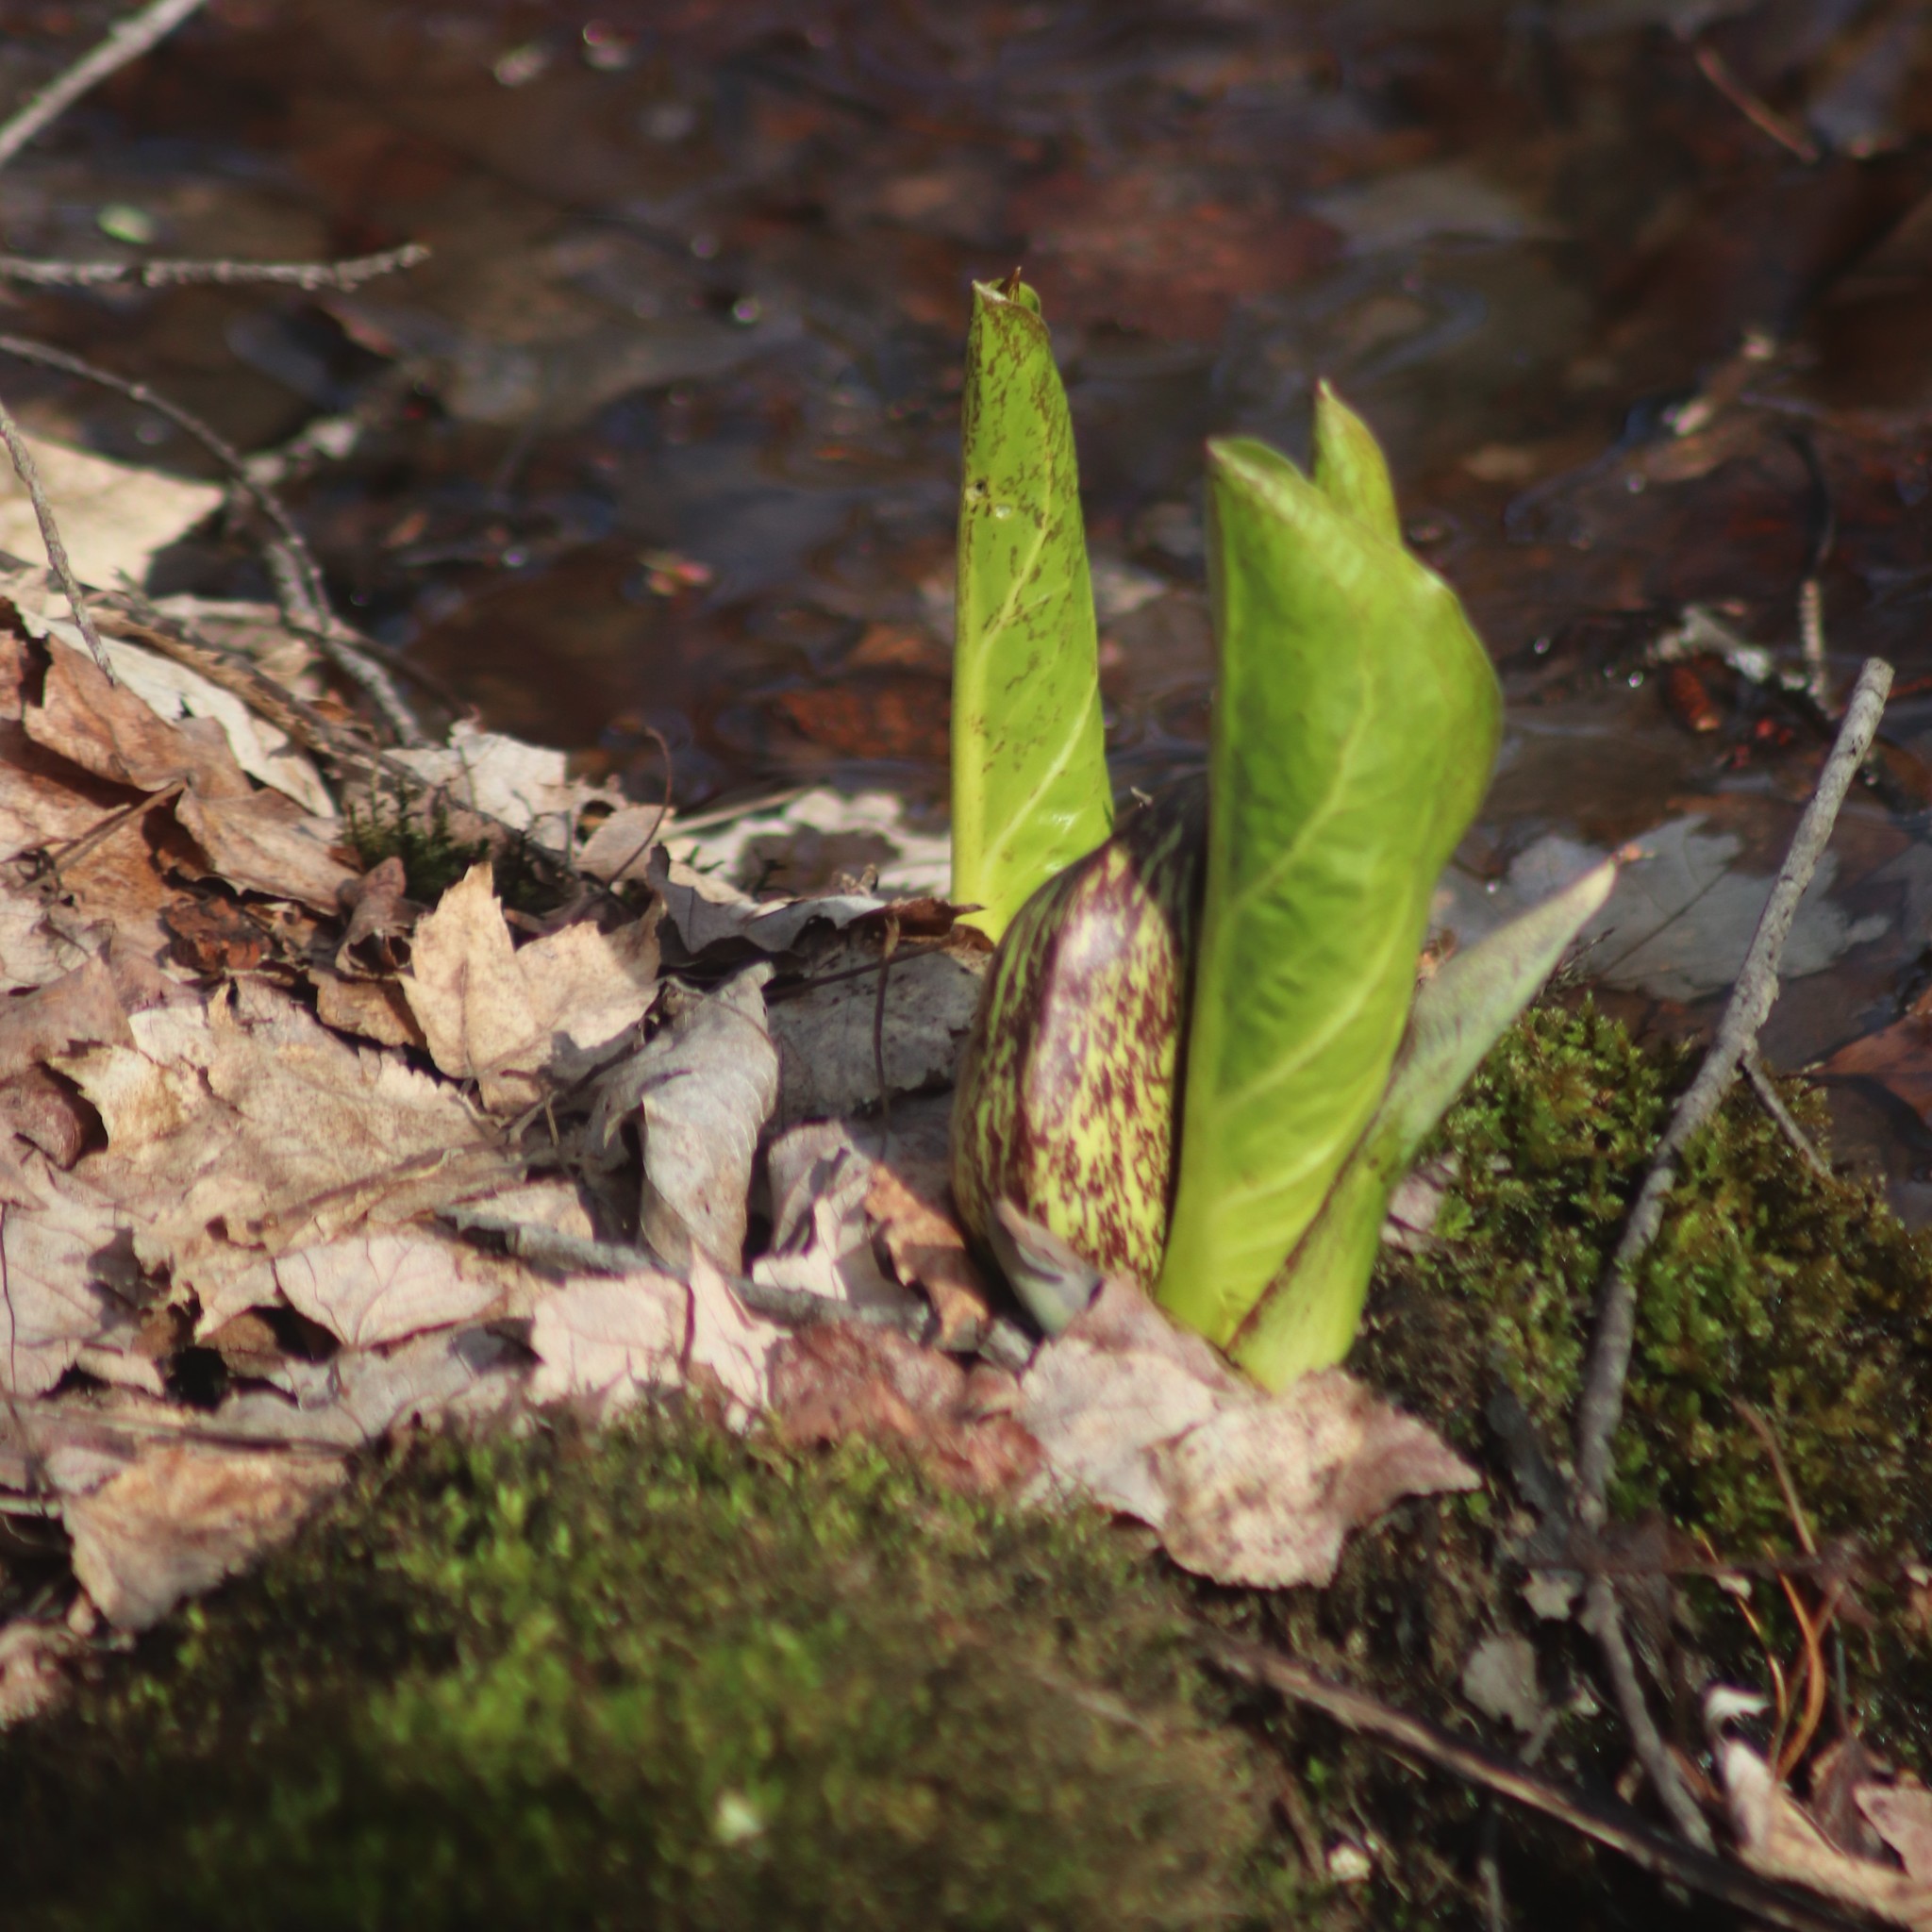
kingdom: Plantae
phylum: Tracheophyta
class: Liliopsida
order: Alismatales
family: Araceae
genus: Symplocarpus
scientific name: Symplocarpus foetidus
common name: Eastern skunk cabbage
